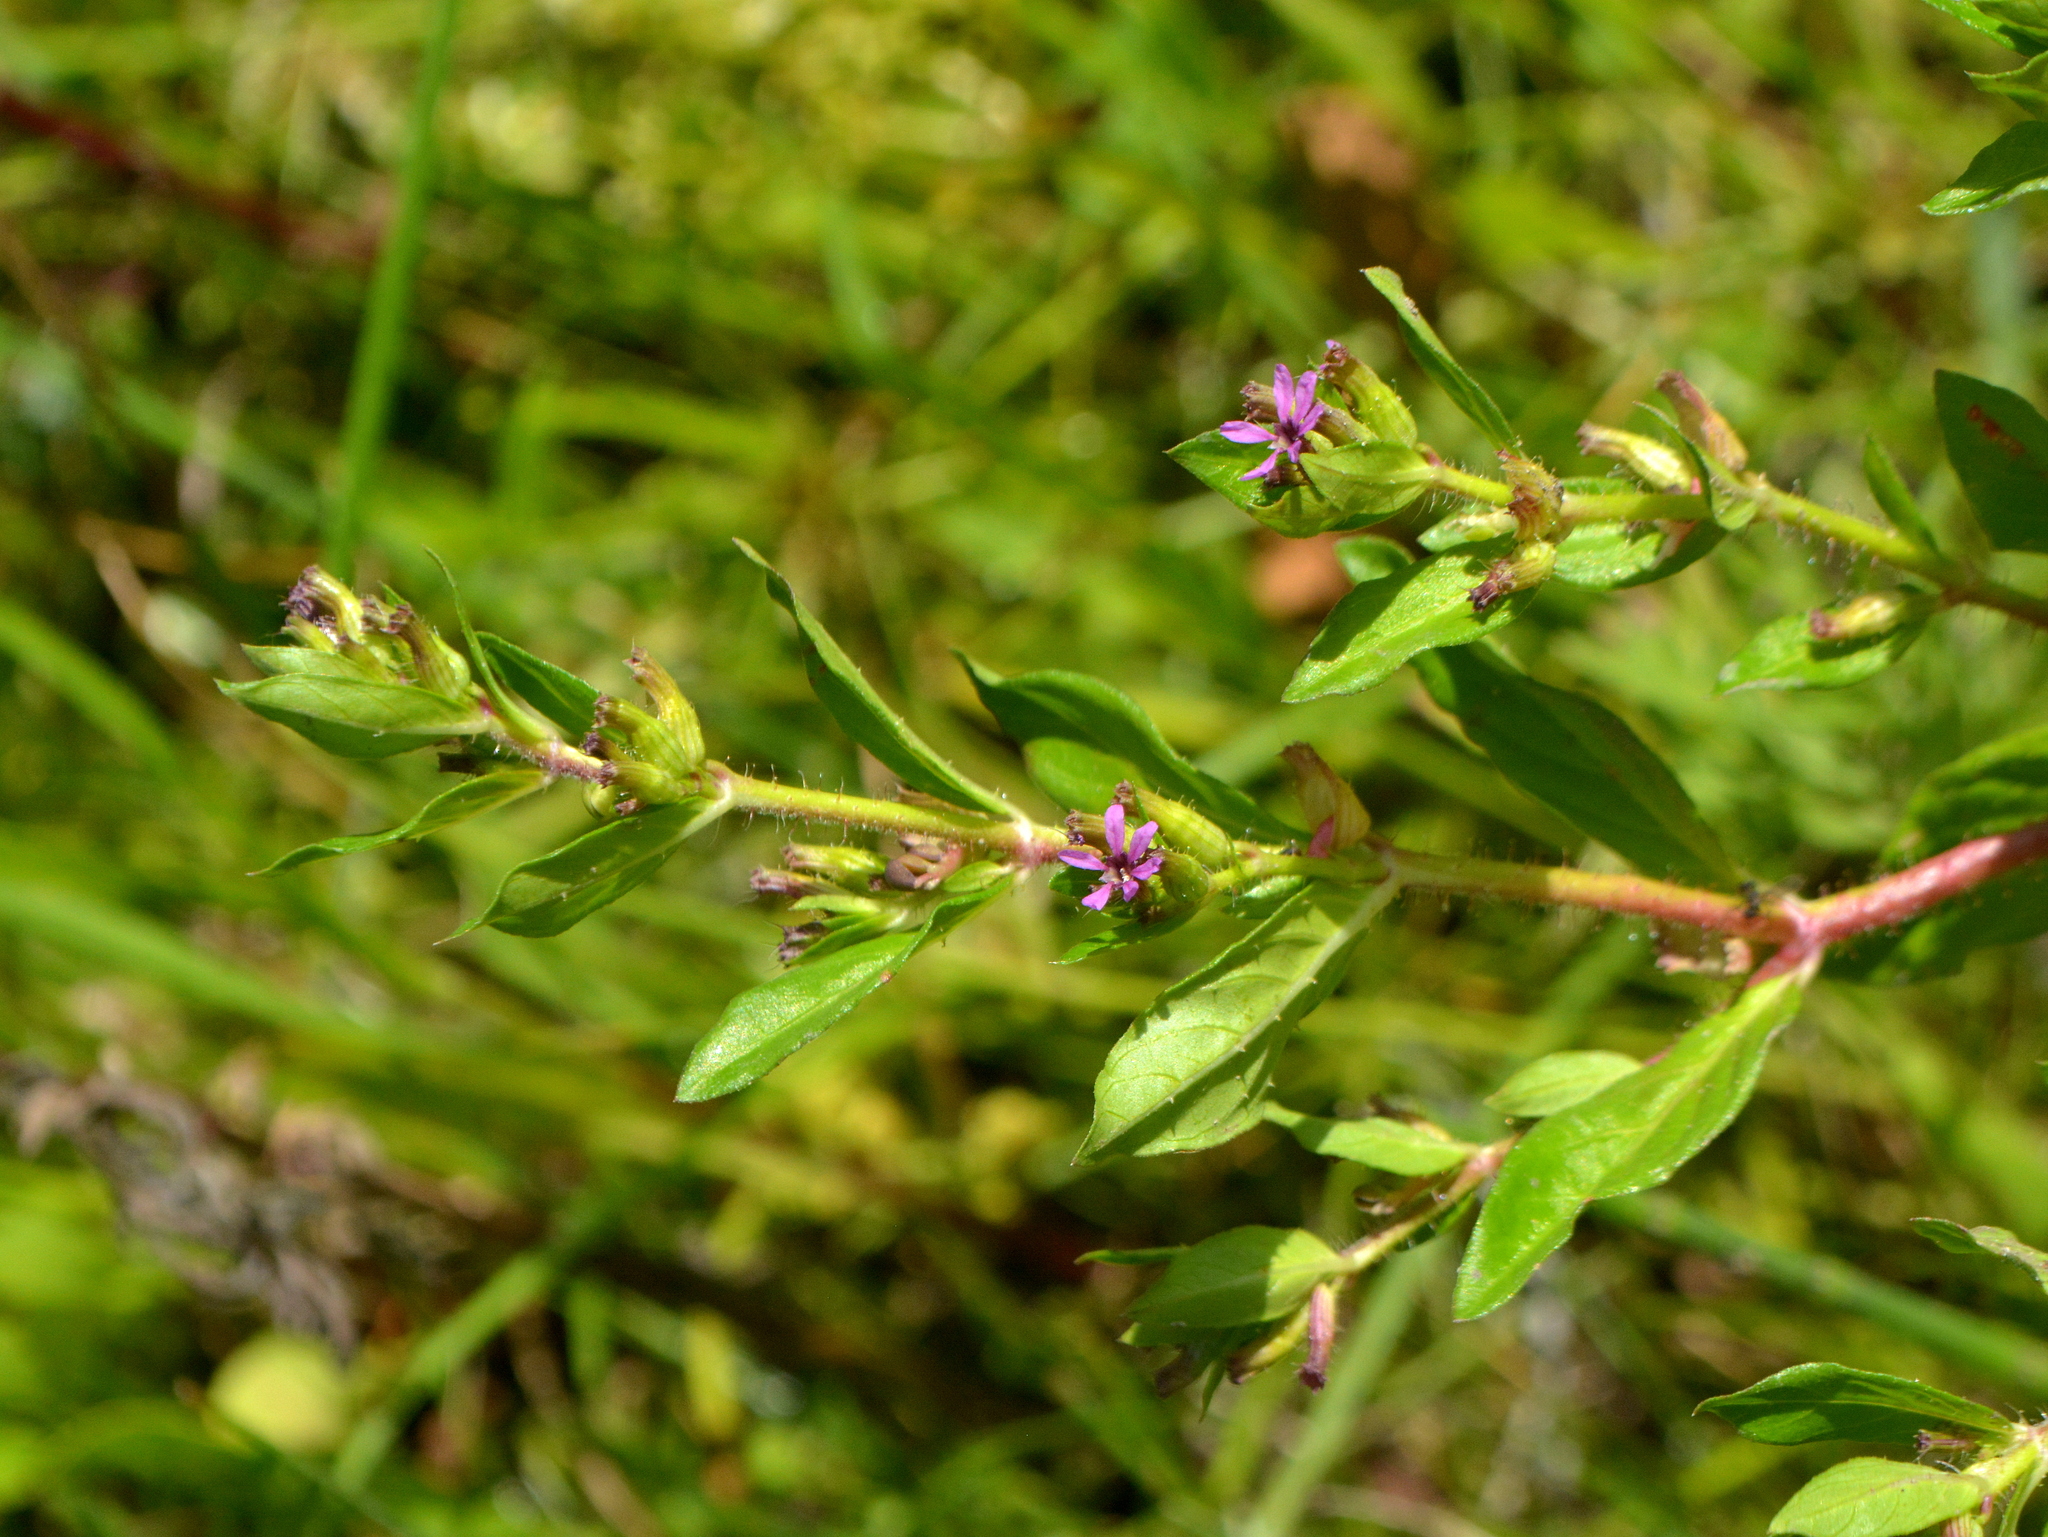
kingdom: Plantae
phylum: Tracheophyta
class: Magnoliopsida
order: Myrtales
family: Lythraceae
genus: Cuphea
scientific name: Cuphea carthagenensis
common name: Colombian waxweed
